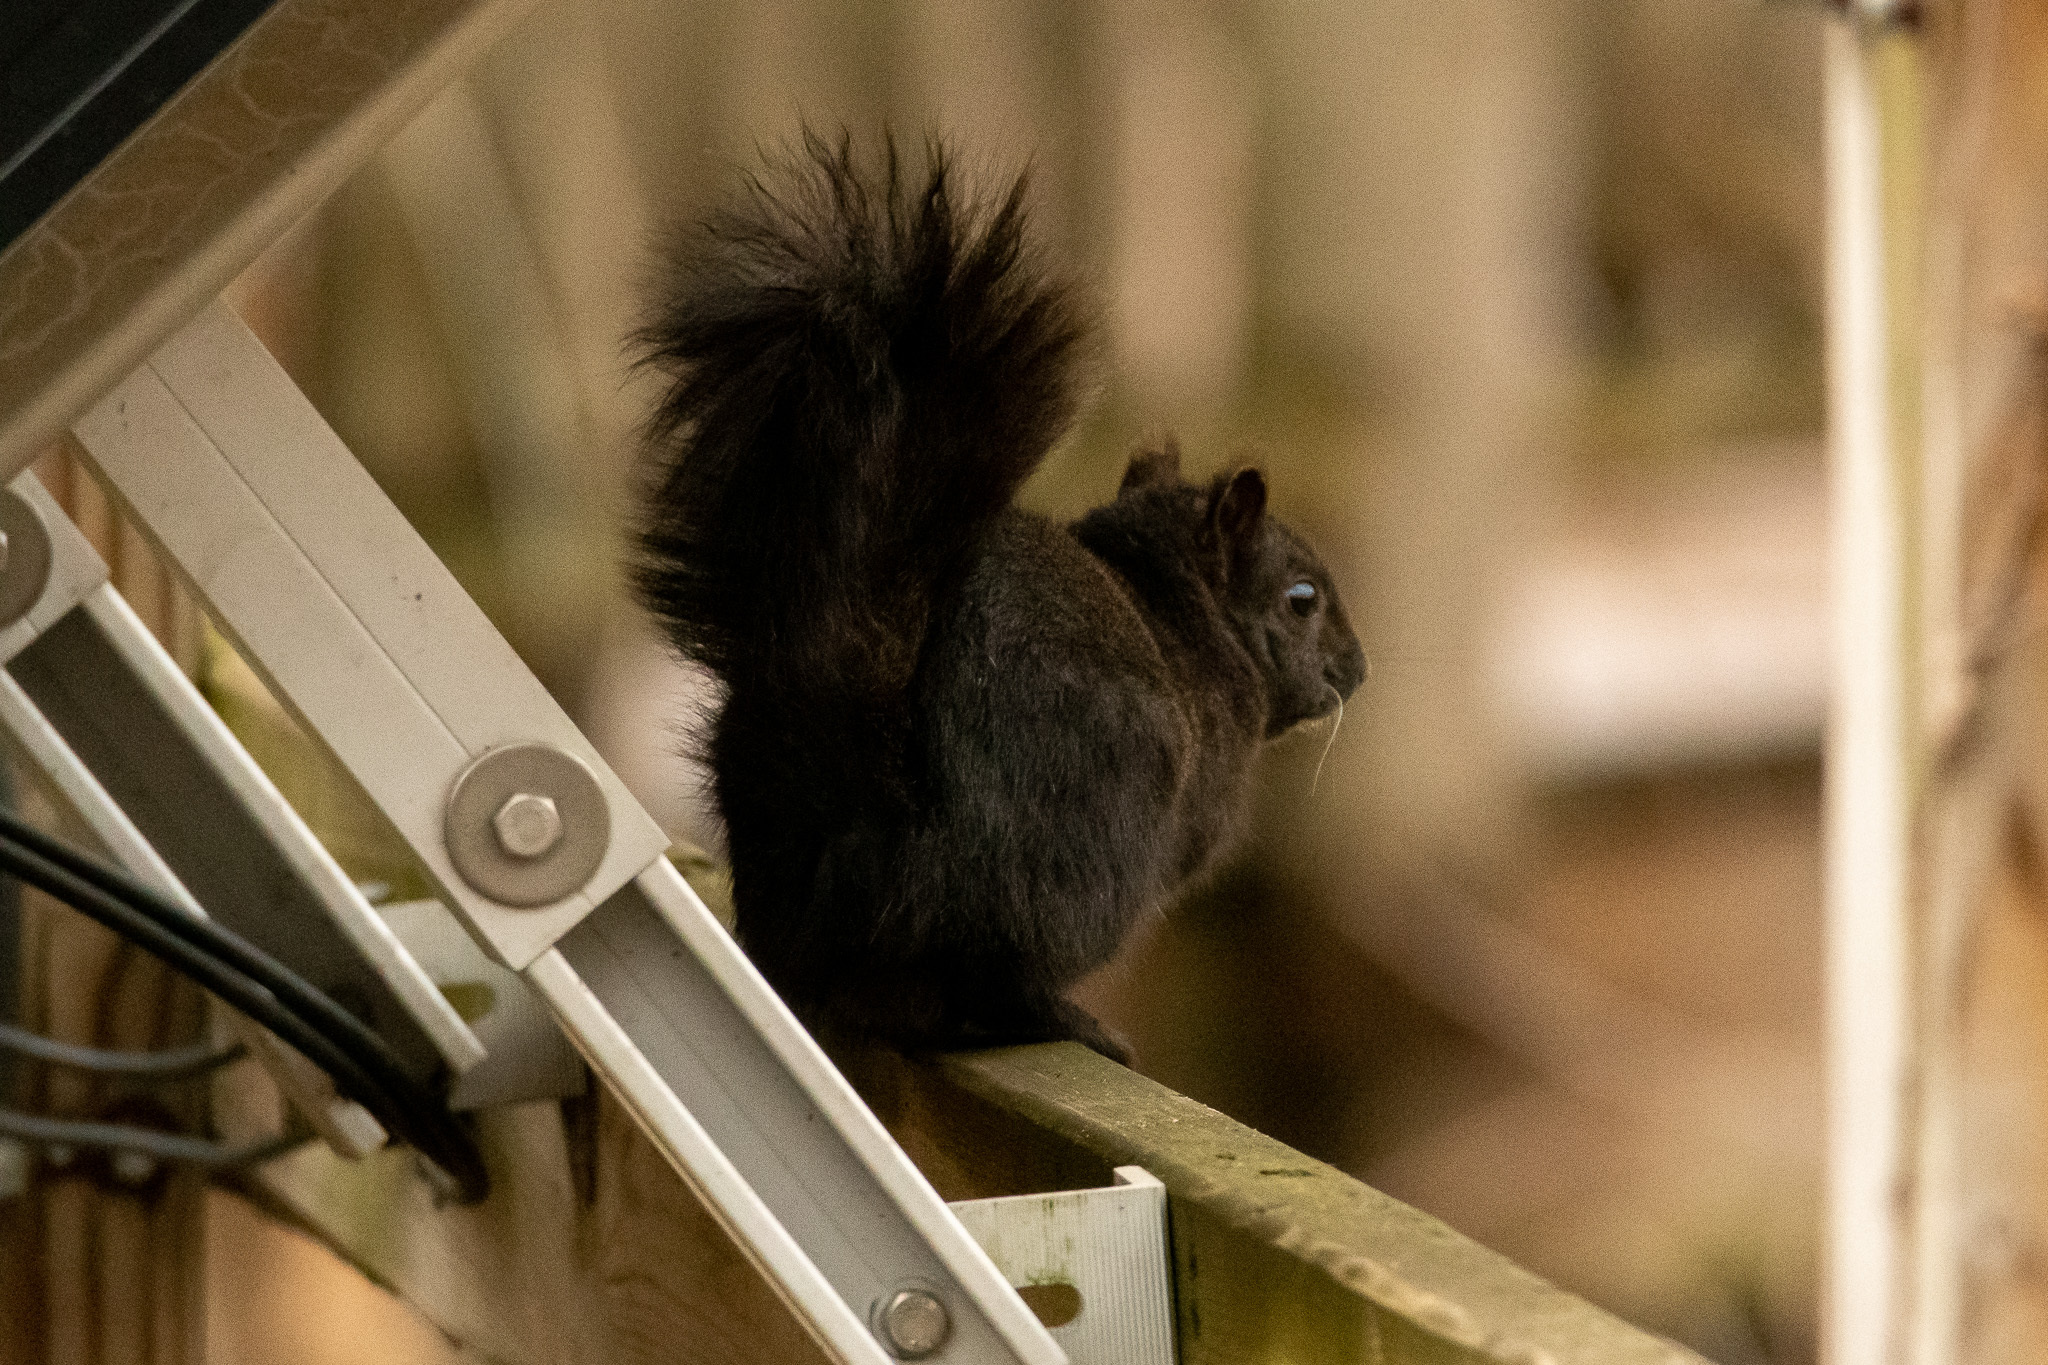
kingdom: Animalia
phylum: Chordata
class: Mammalia
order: Rodentia
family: Sciuridae
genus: Sciurus
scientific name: Sciurus carolinensis
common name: Eastern gray squirrel
